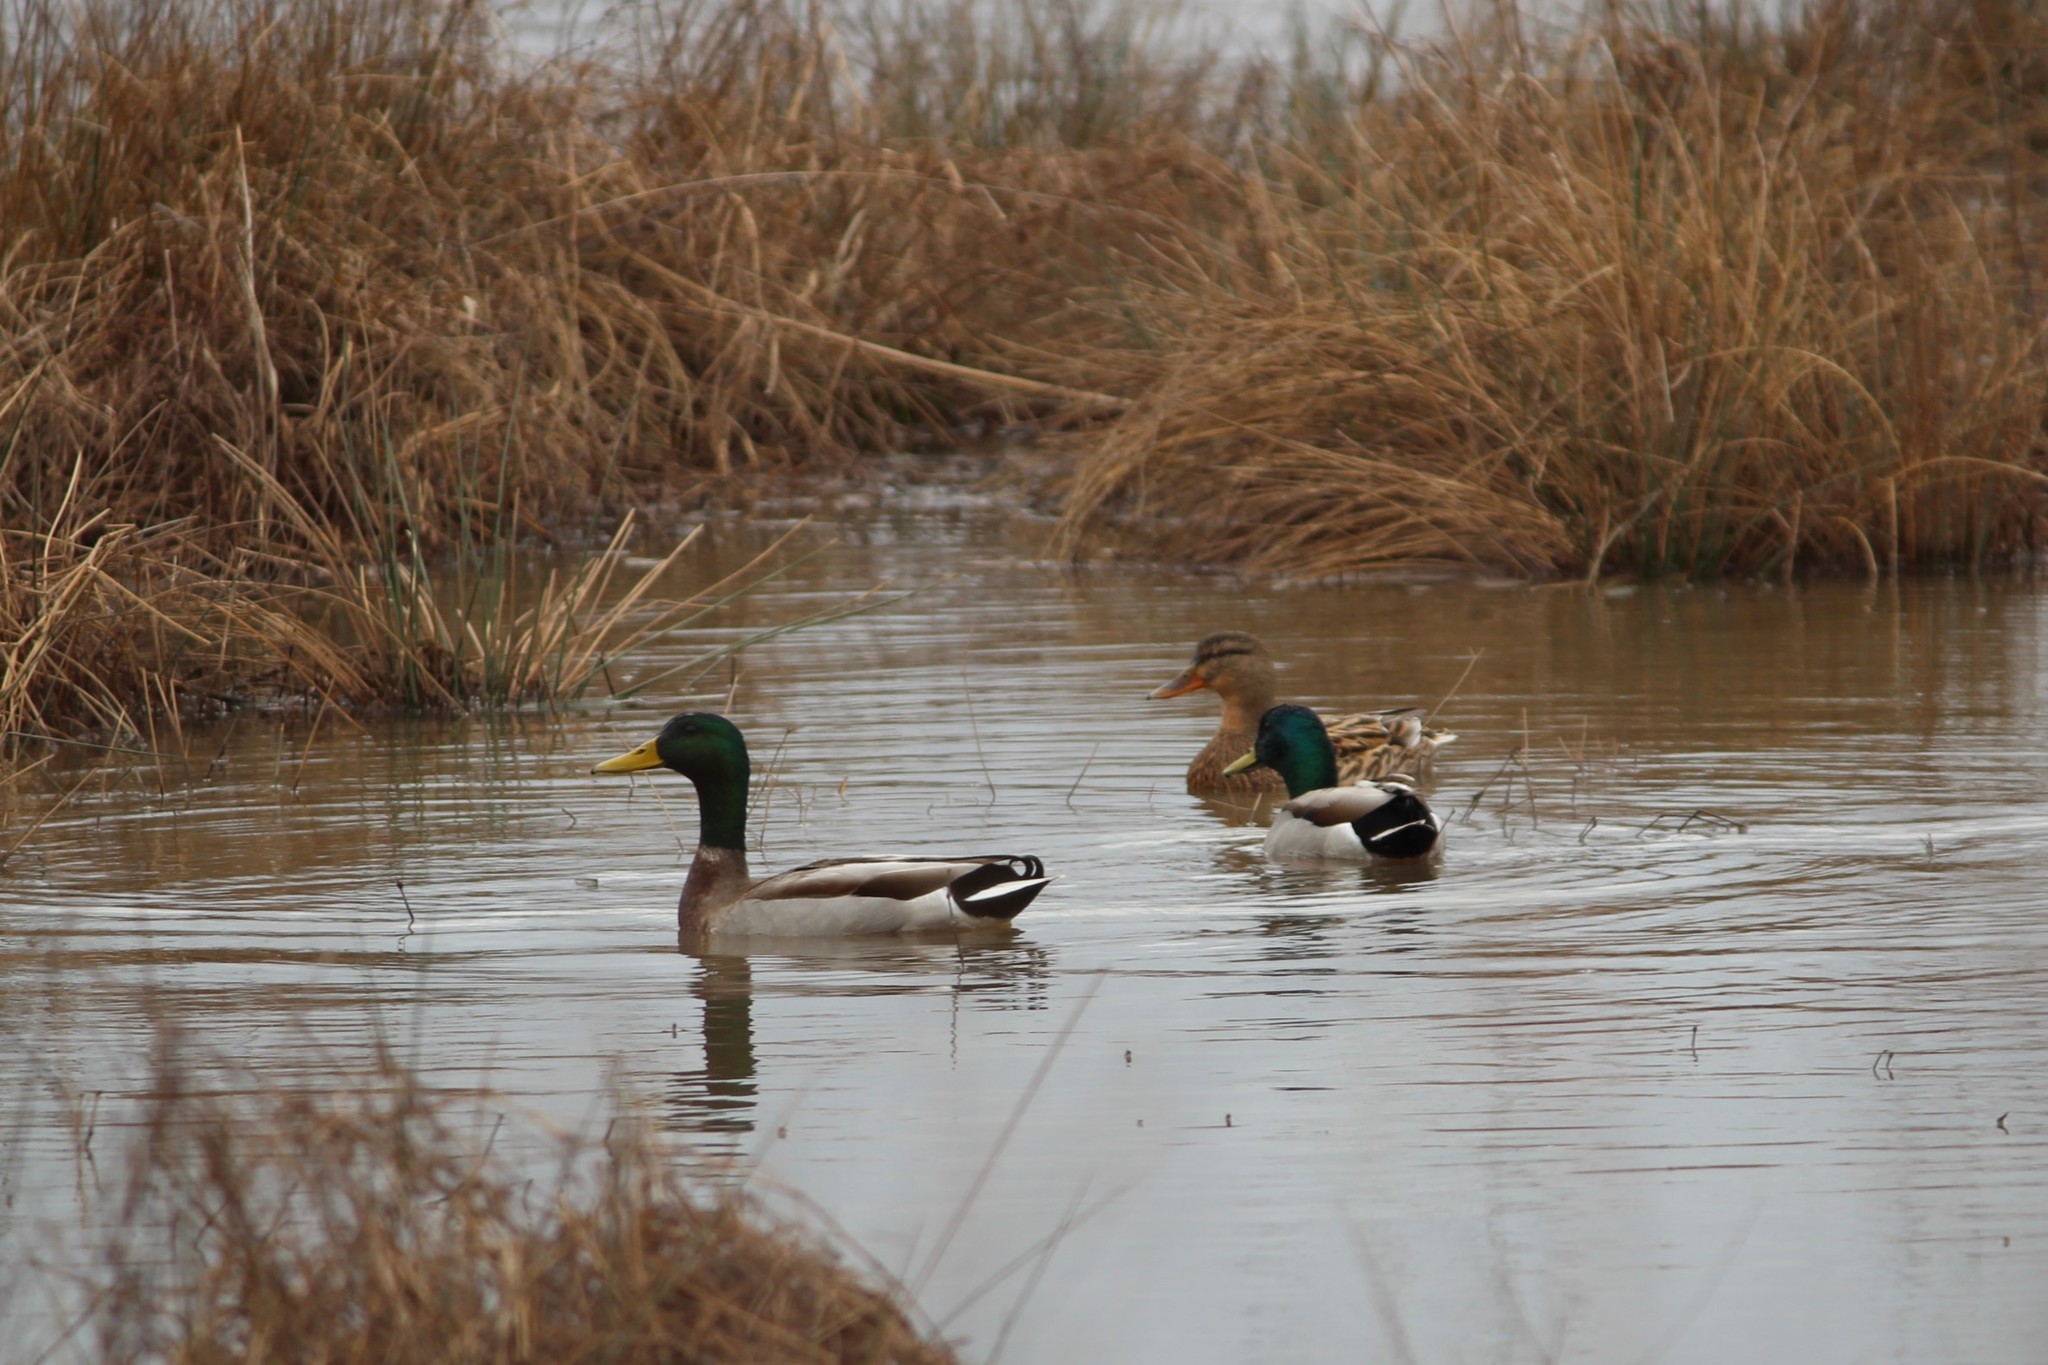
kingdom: Animalia
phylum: Chordata
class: Aves
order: Anseriformes
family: Anatidae
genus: Anas
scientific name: Anas platyrhynchos
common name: Mallard
